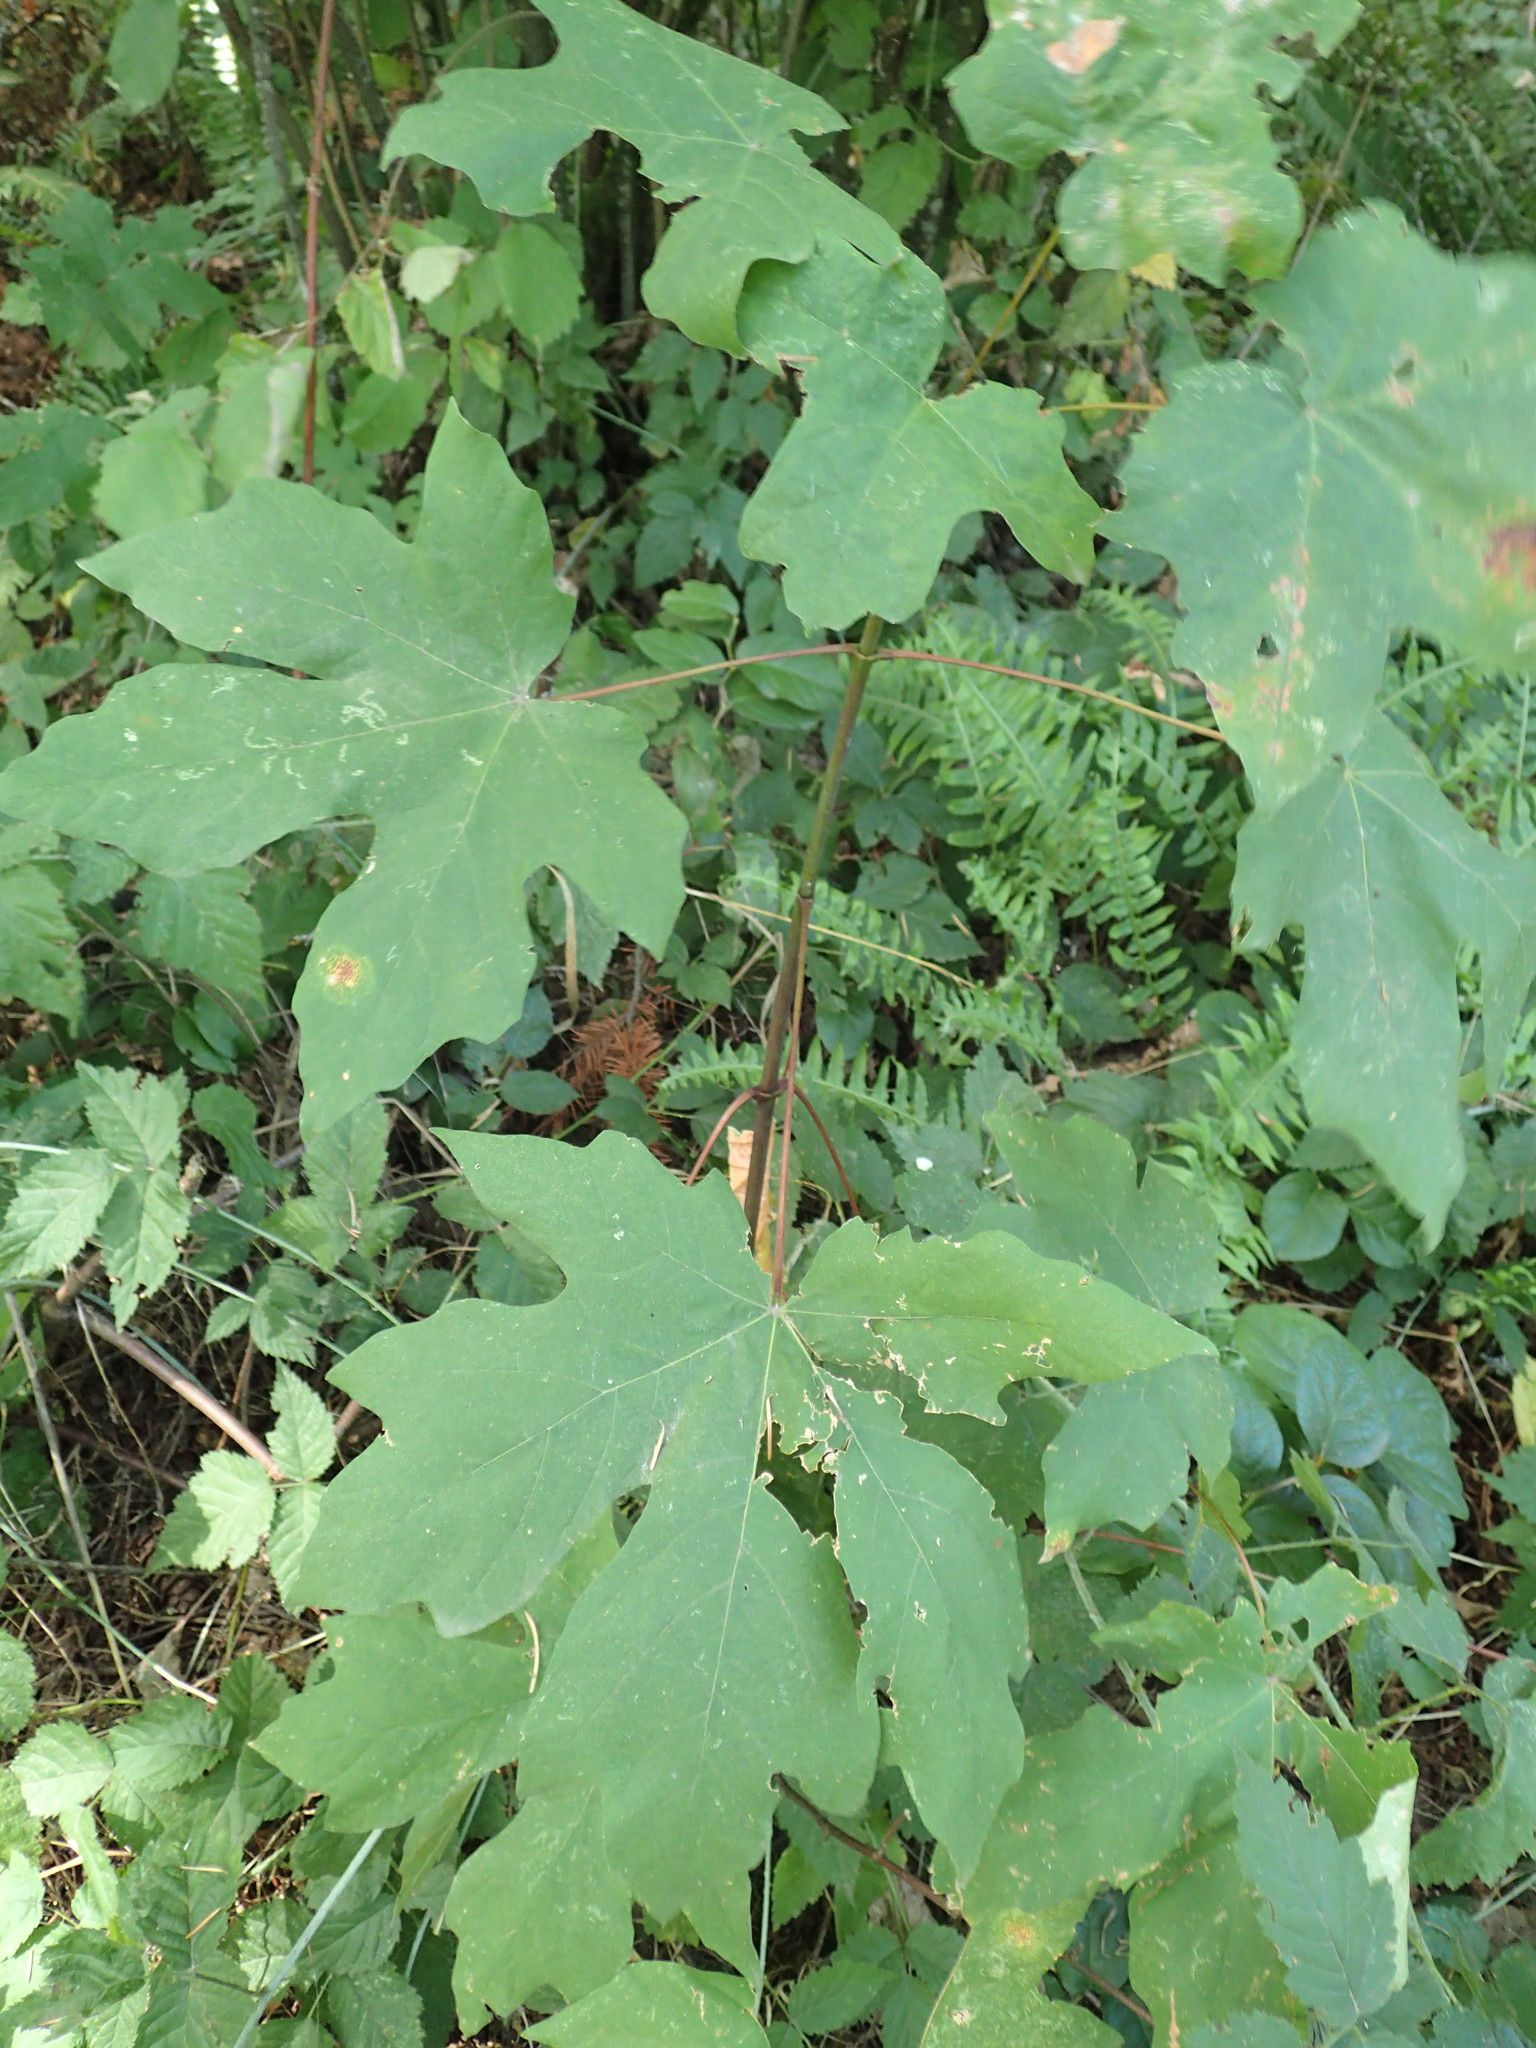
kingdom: Plantae
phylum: Tracheophyta
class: Magnoliopsida
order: Sapindales
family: Sapindaceae
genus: Acer
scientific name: Acer macrophyllum
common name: Oregon maple
